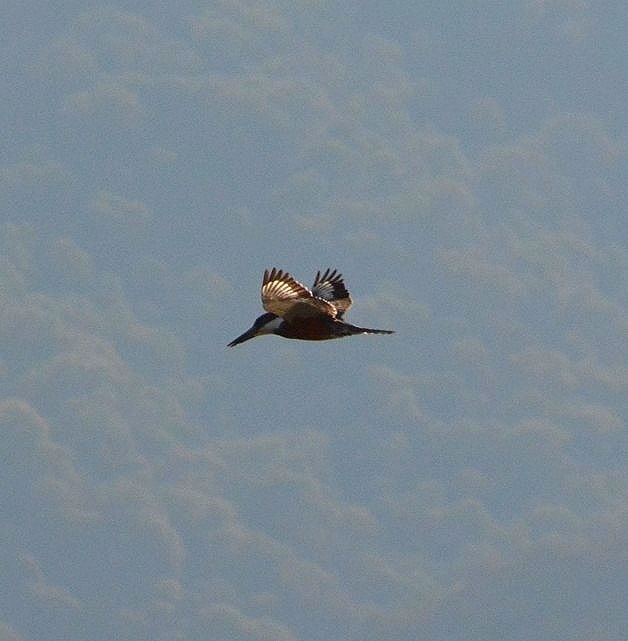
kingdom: Animalia
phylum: Chordata
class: Aves
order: Coraciiformes
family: Alcedinidae
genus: Megaceryle
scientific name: Megaceryle torquata
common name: Ringed kingfisher
